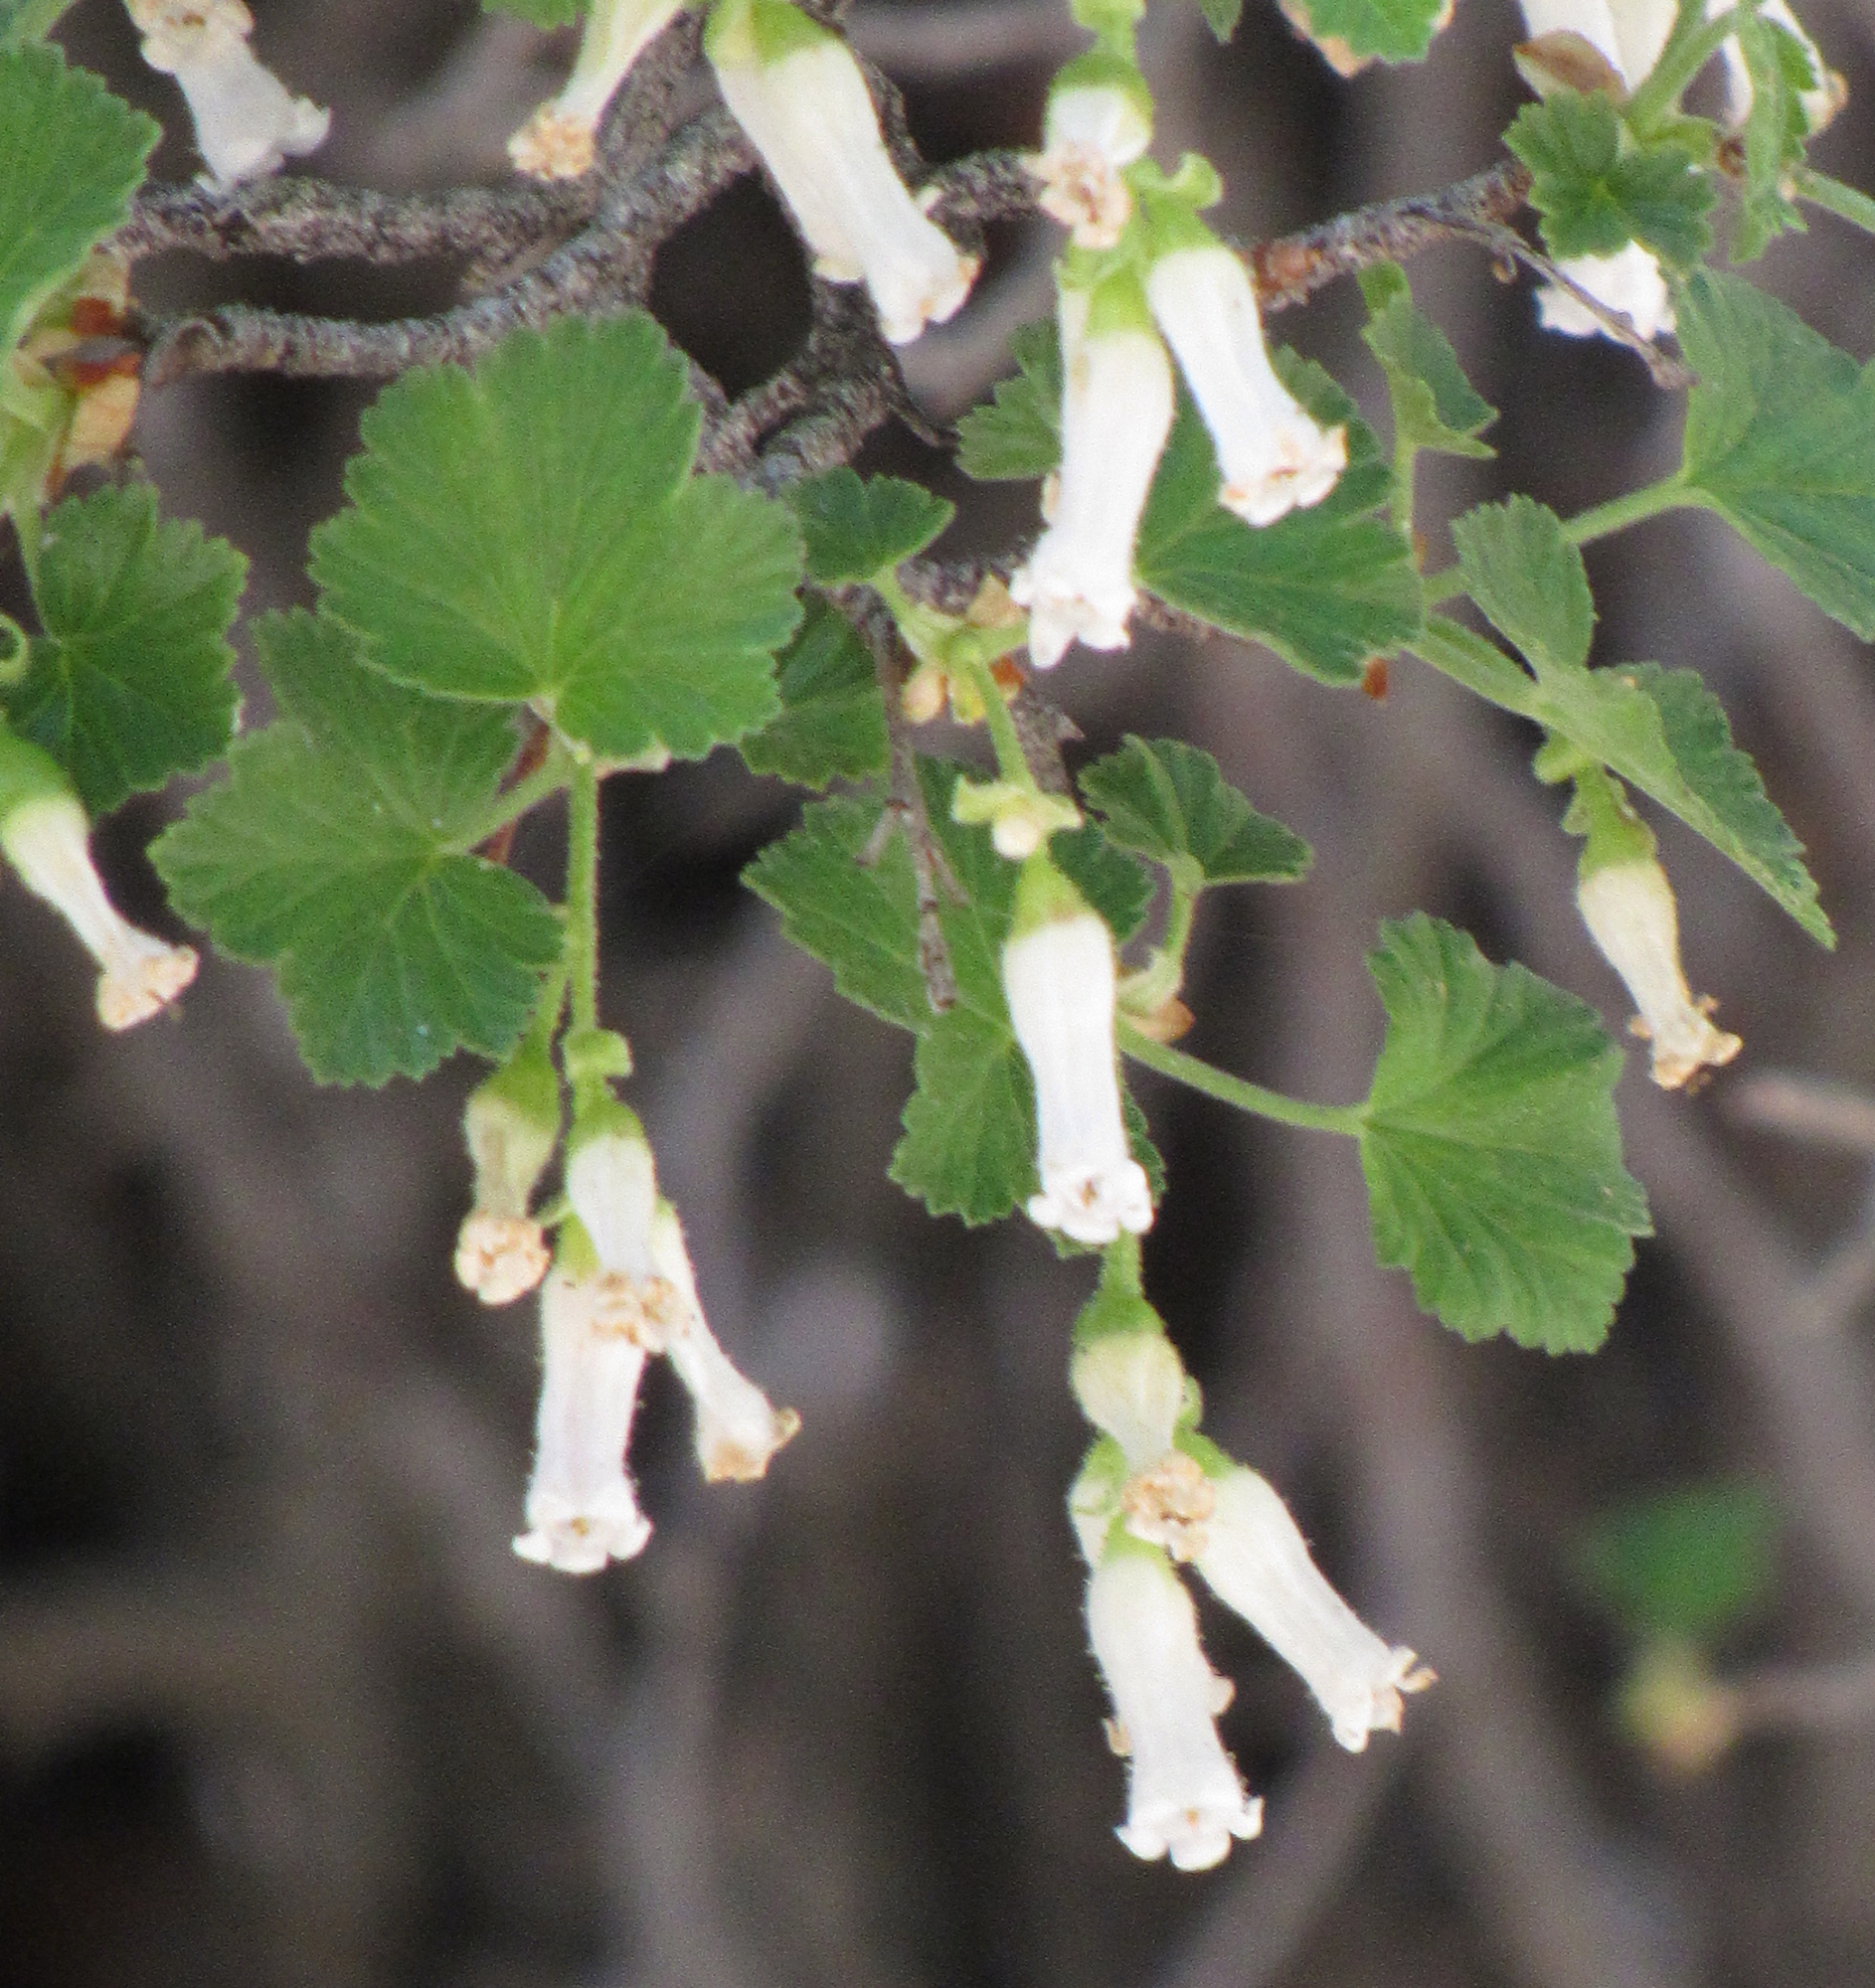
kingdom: Plantae
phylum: Tracheophyta
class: Magnoliopsida
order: Saxifragales
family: Grossulariaceae
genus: Ribes
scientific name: Ribes cereum
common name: Wax currant
